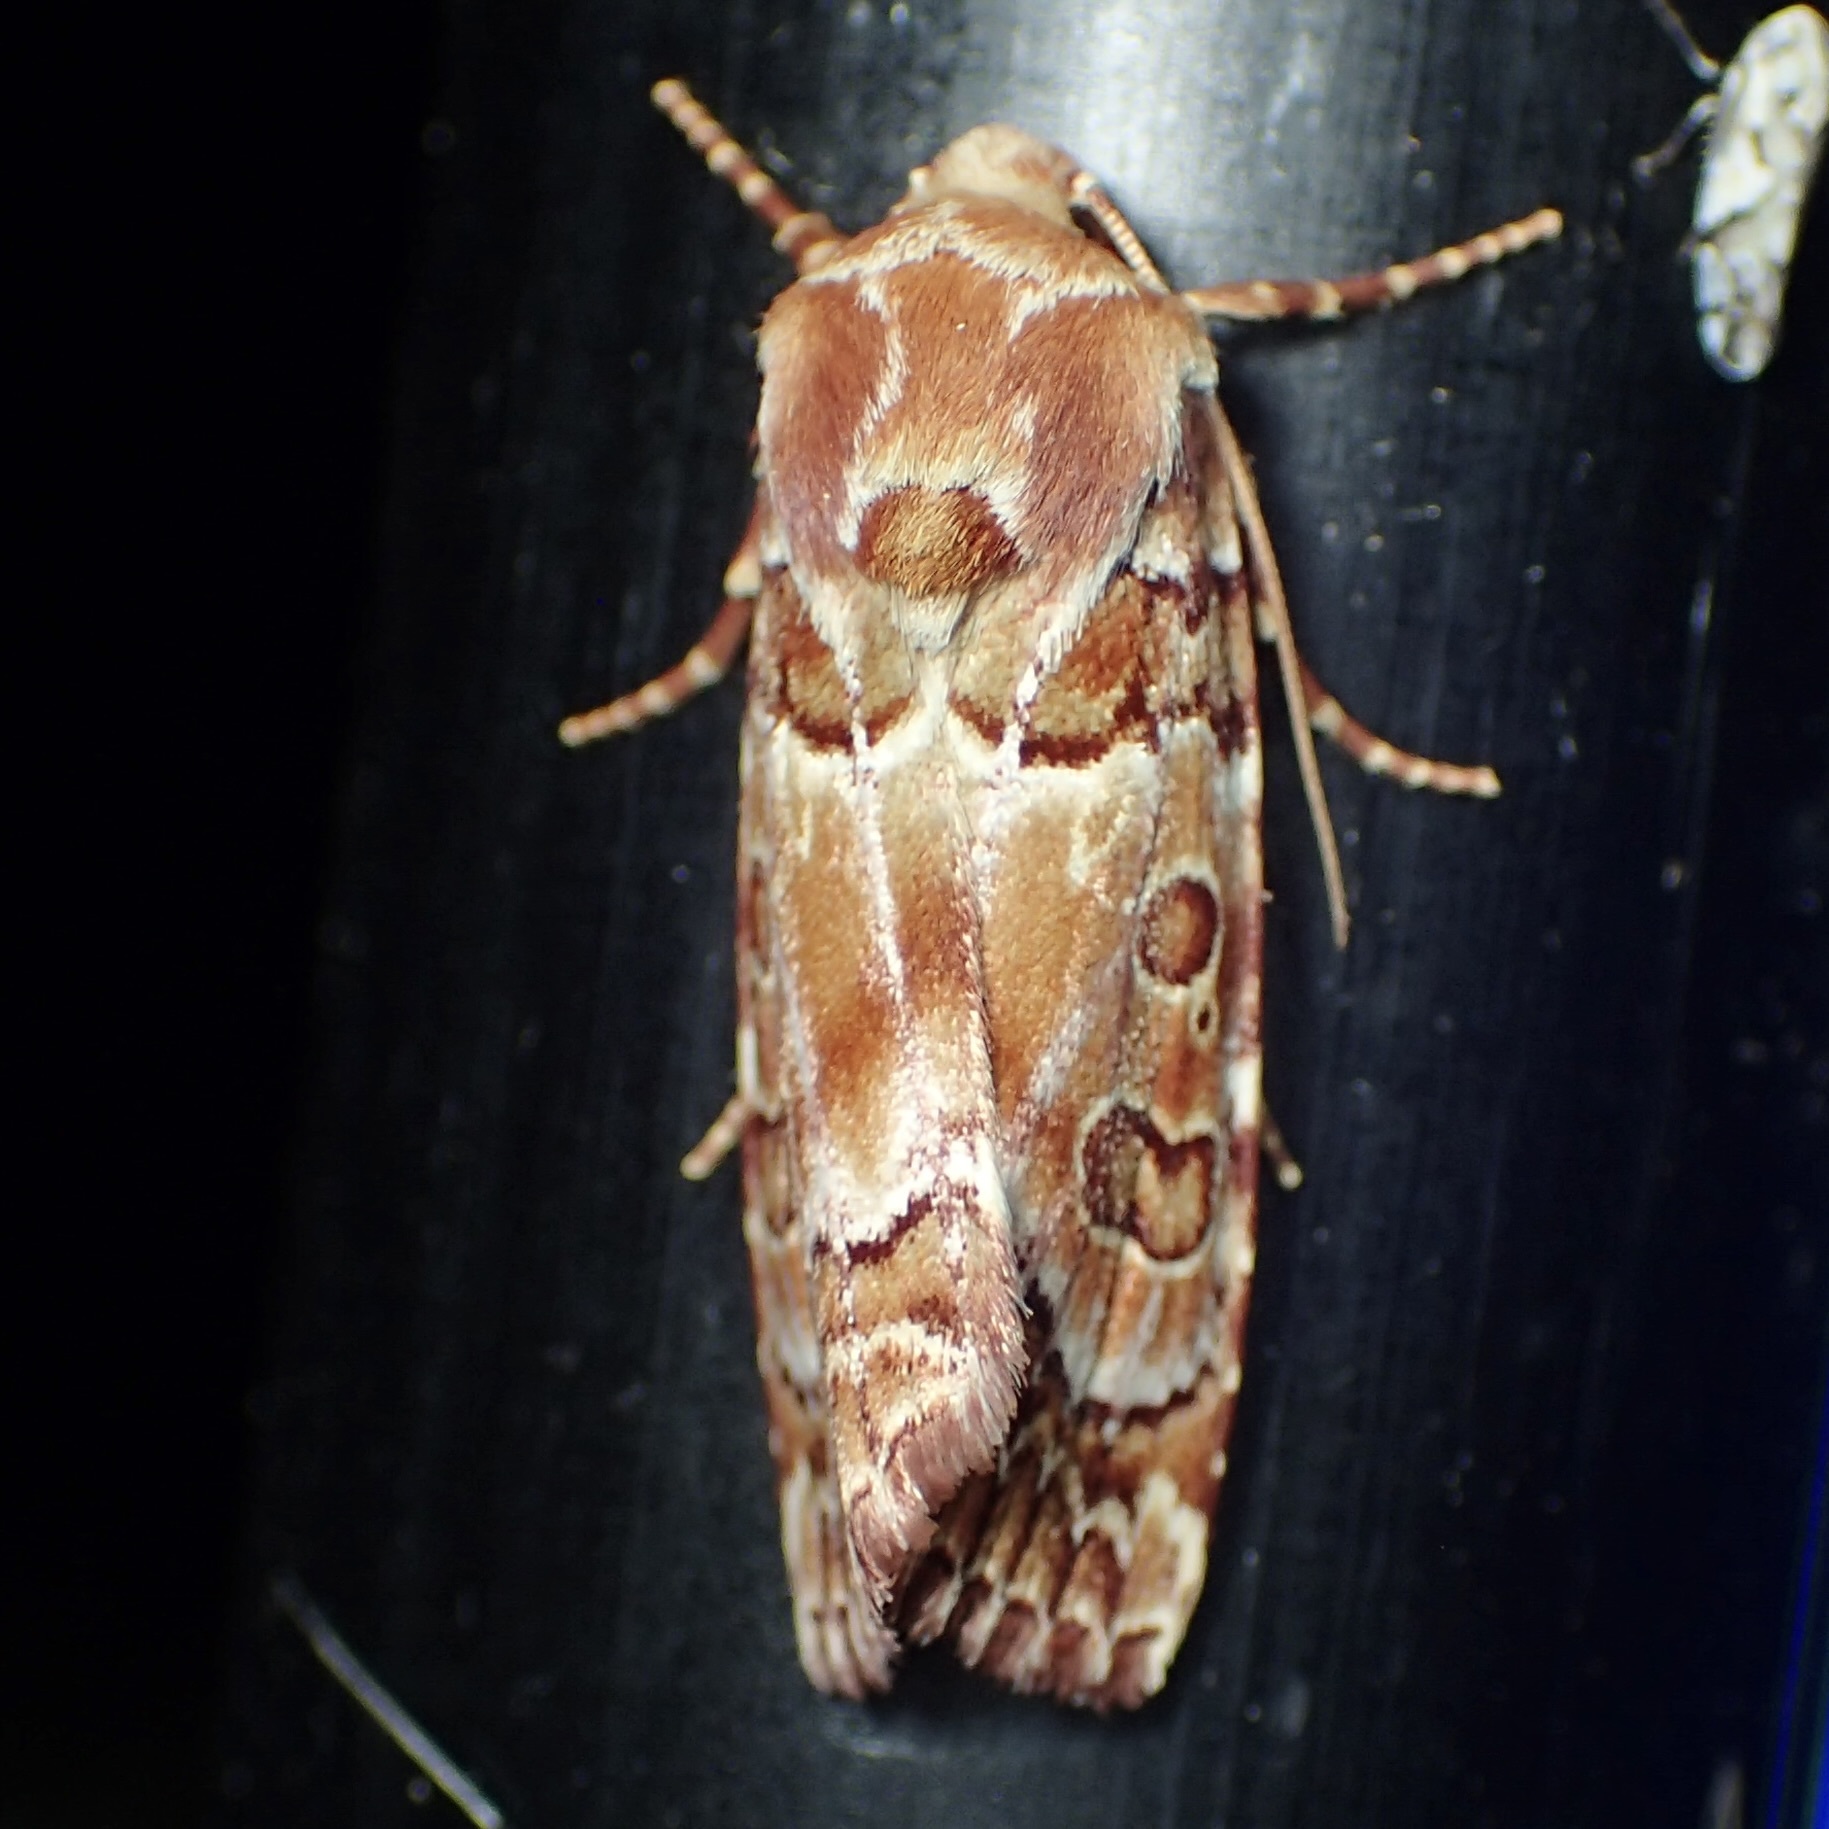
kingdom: Animalia
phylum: Arthropoda
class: Insecta
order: Lepidoptera
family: Noctuidae
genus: Eriopyga
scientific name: Eriopyga hueco
